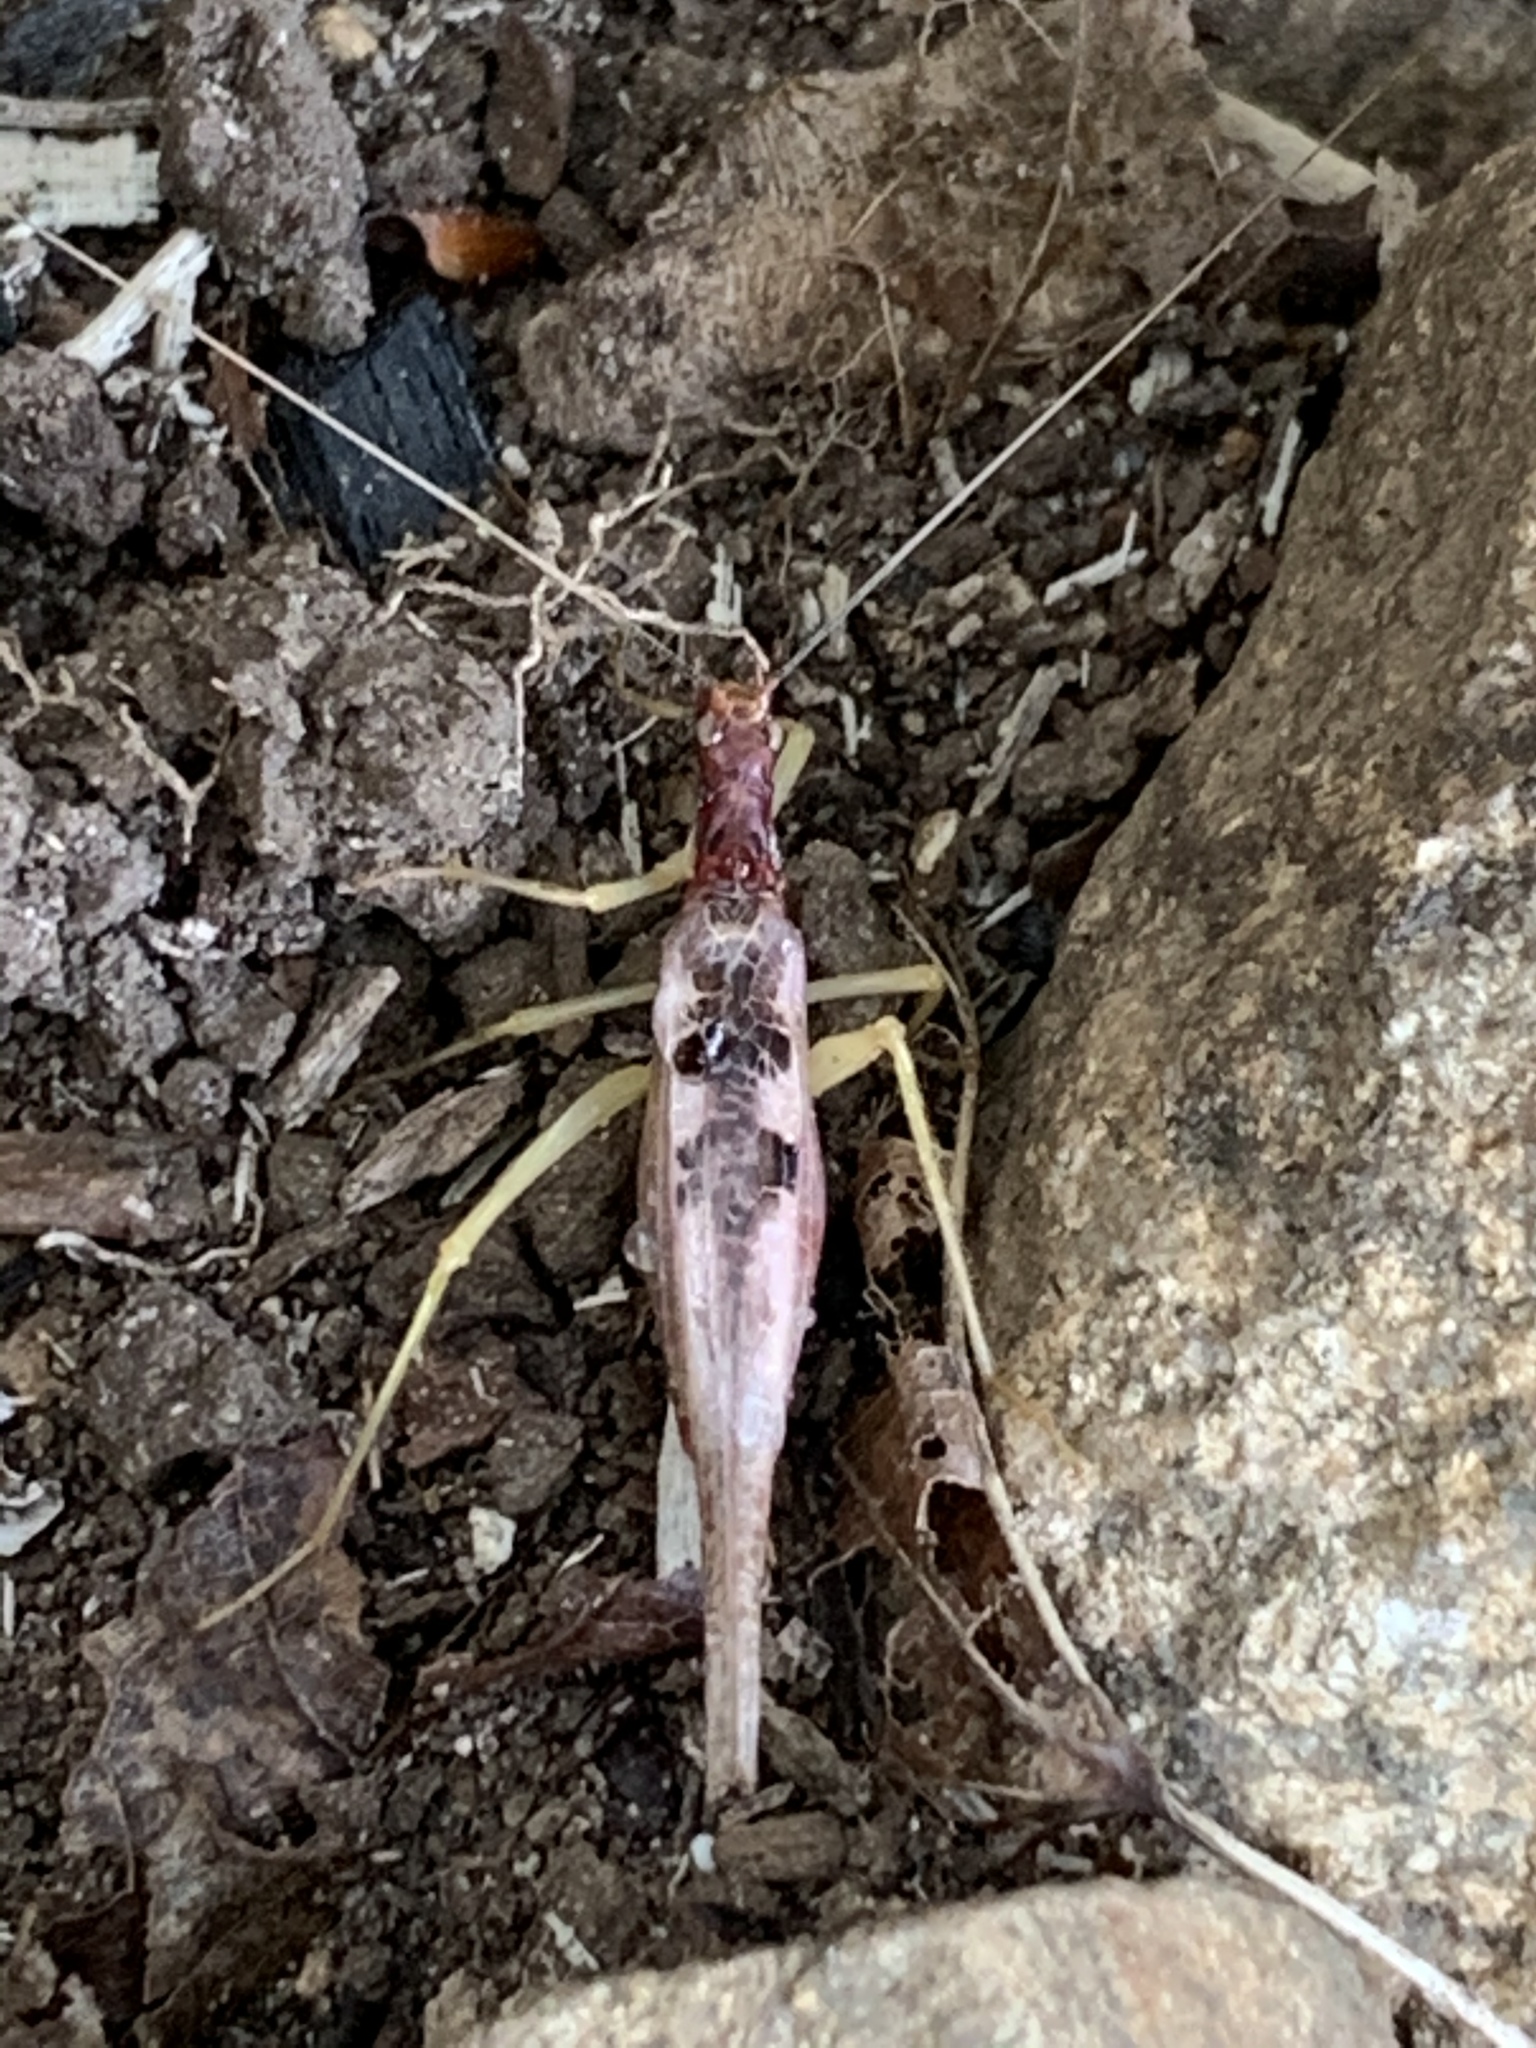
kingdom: Animalia
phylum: Arthropoda
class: Insecta
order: Orthoptera
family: Gryllidae
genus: Neoxabea
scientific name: Neoxabea bipunctata
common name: Two-spotted tree cricket
